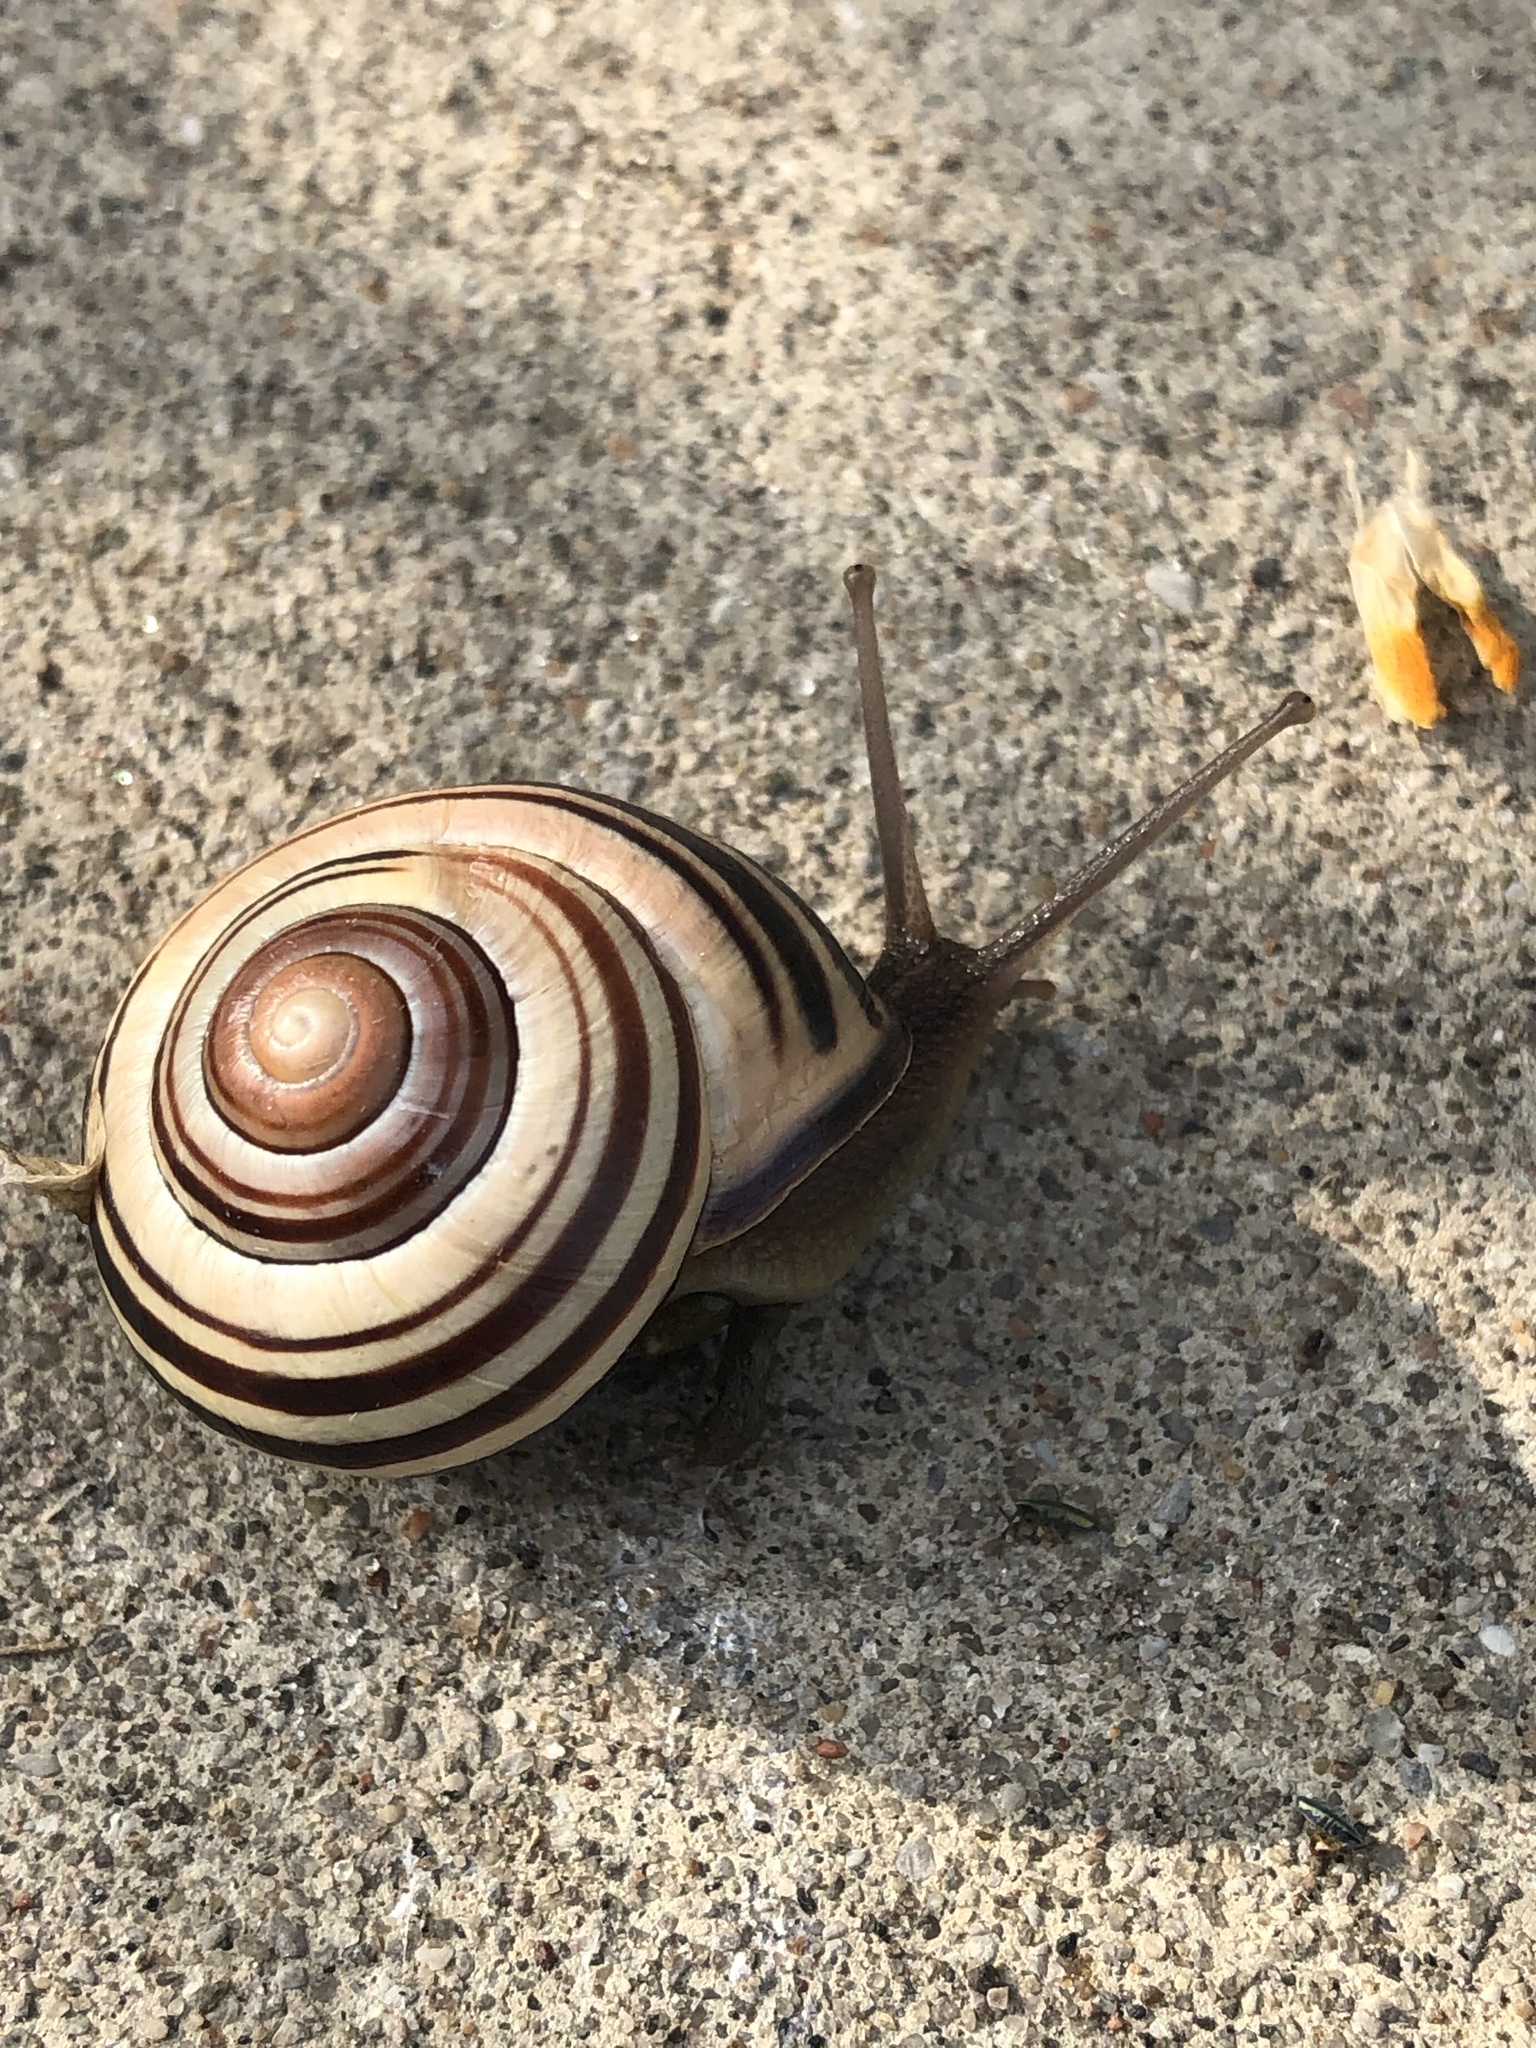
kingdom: Animalia
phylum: Mollusca
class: Gastropoda
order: Stylommatophora
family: Helicidae
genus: Cepaea
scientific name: Cepaea nemoralis
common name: Grovesnail
